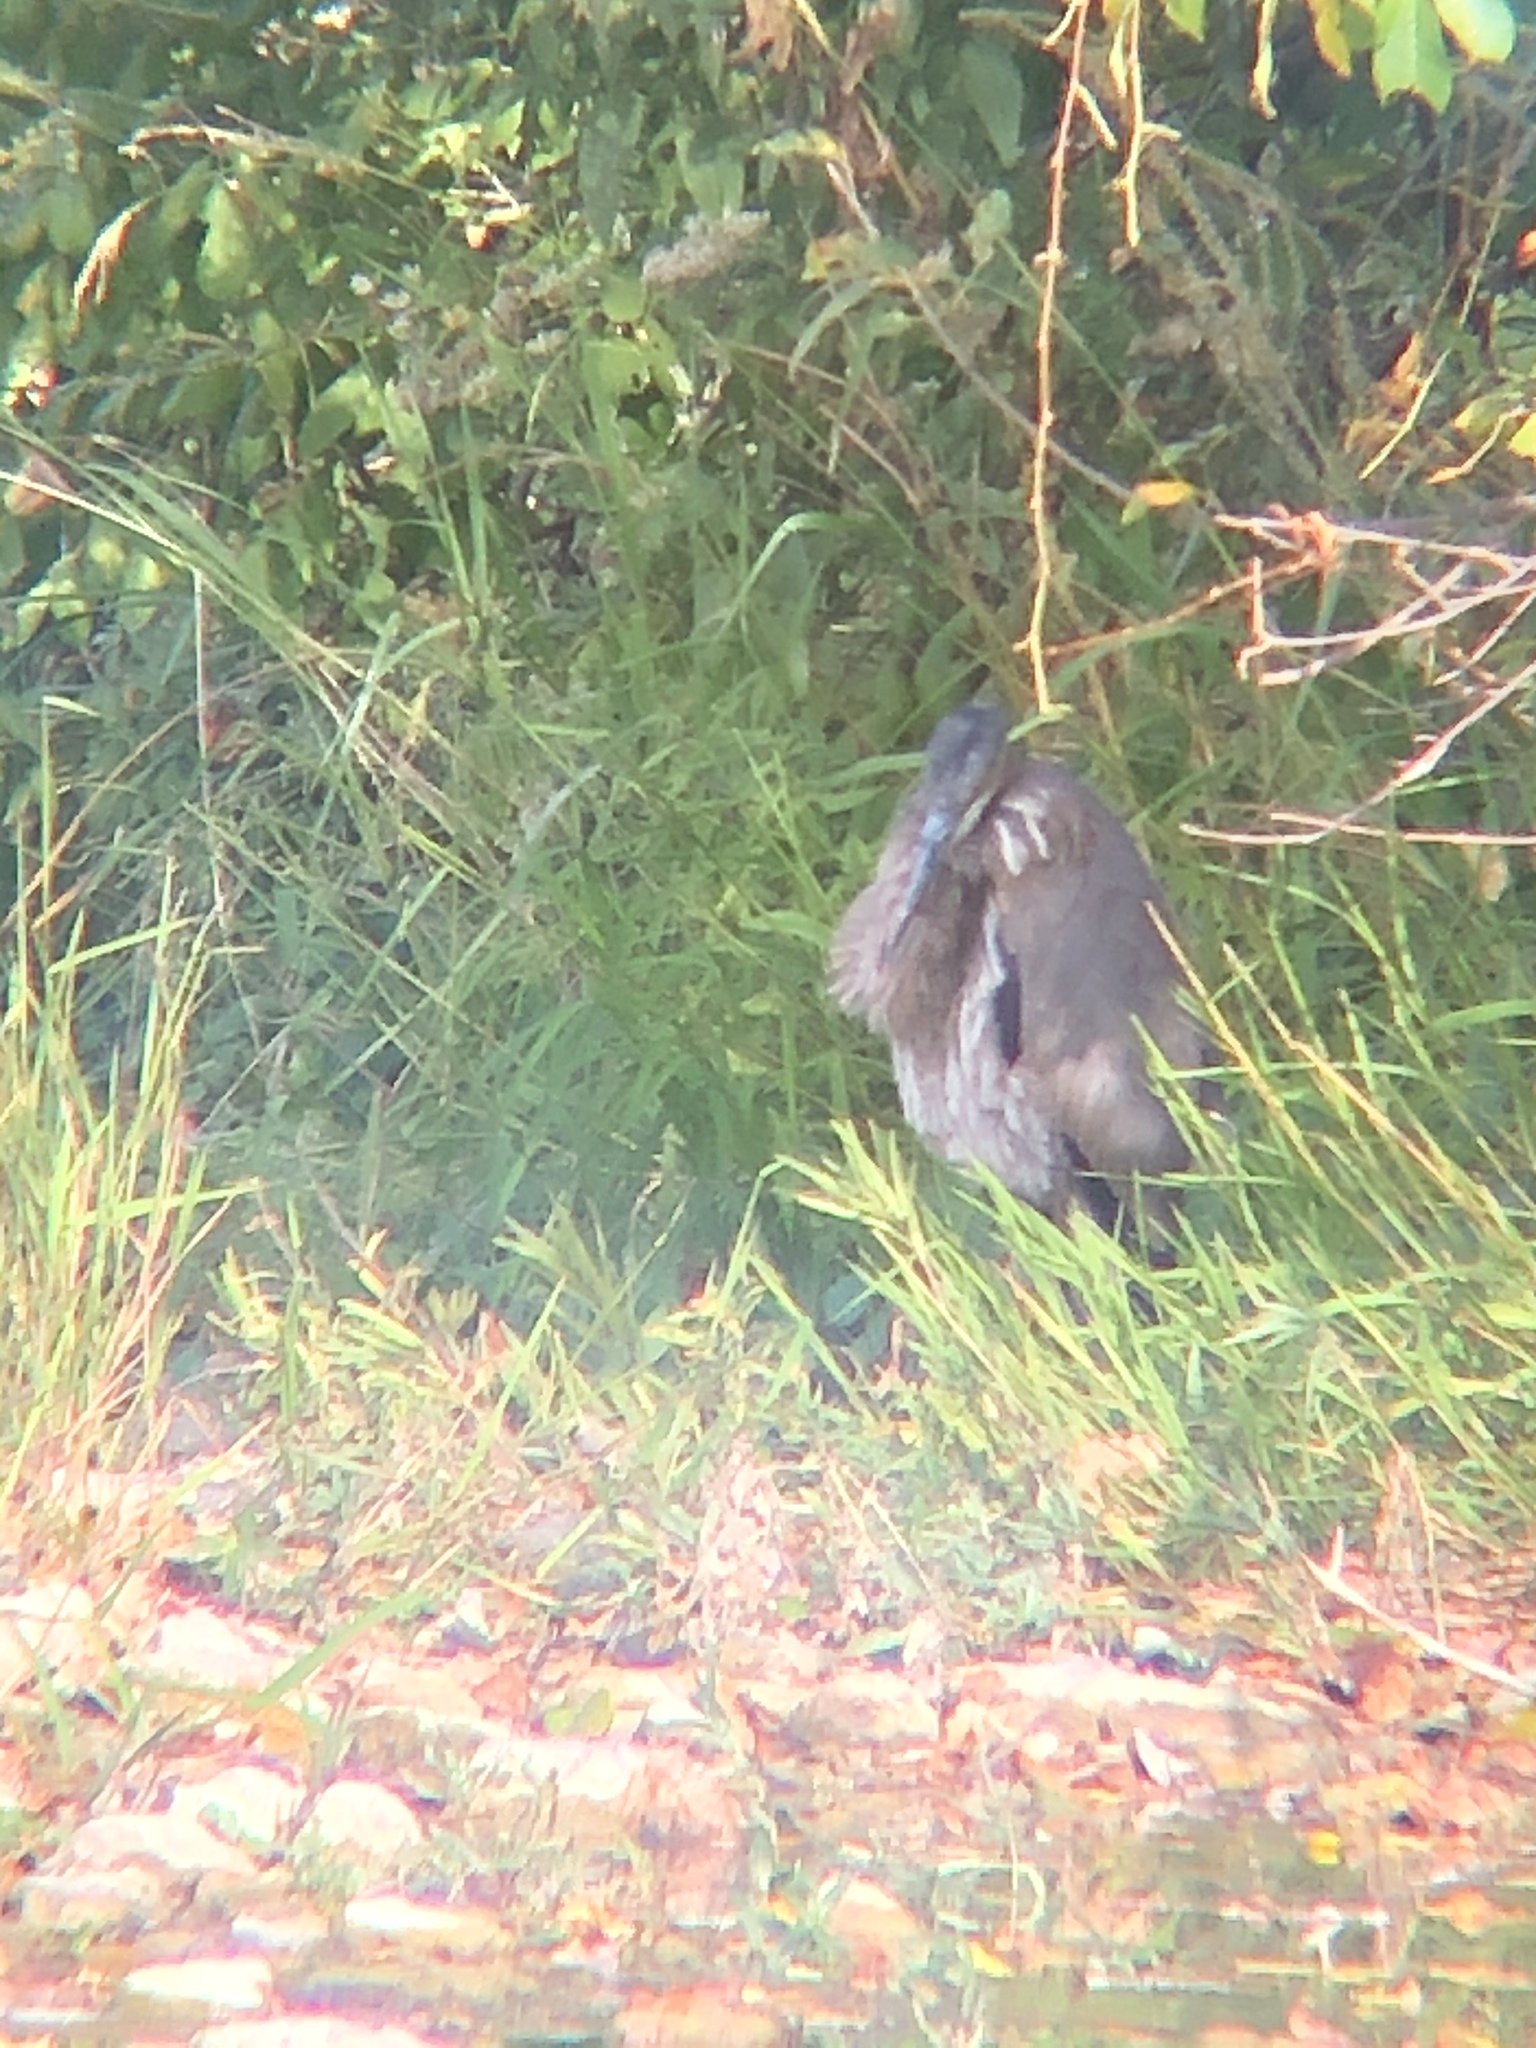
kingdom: Animalia
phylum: Chordata
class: Aves
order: Pelecaniformes
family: Ardeidae
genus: Ardea
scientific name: Ardea herodias
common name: Great blue heron
